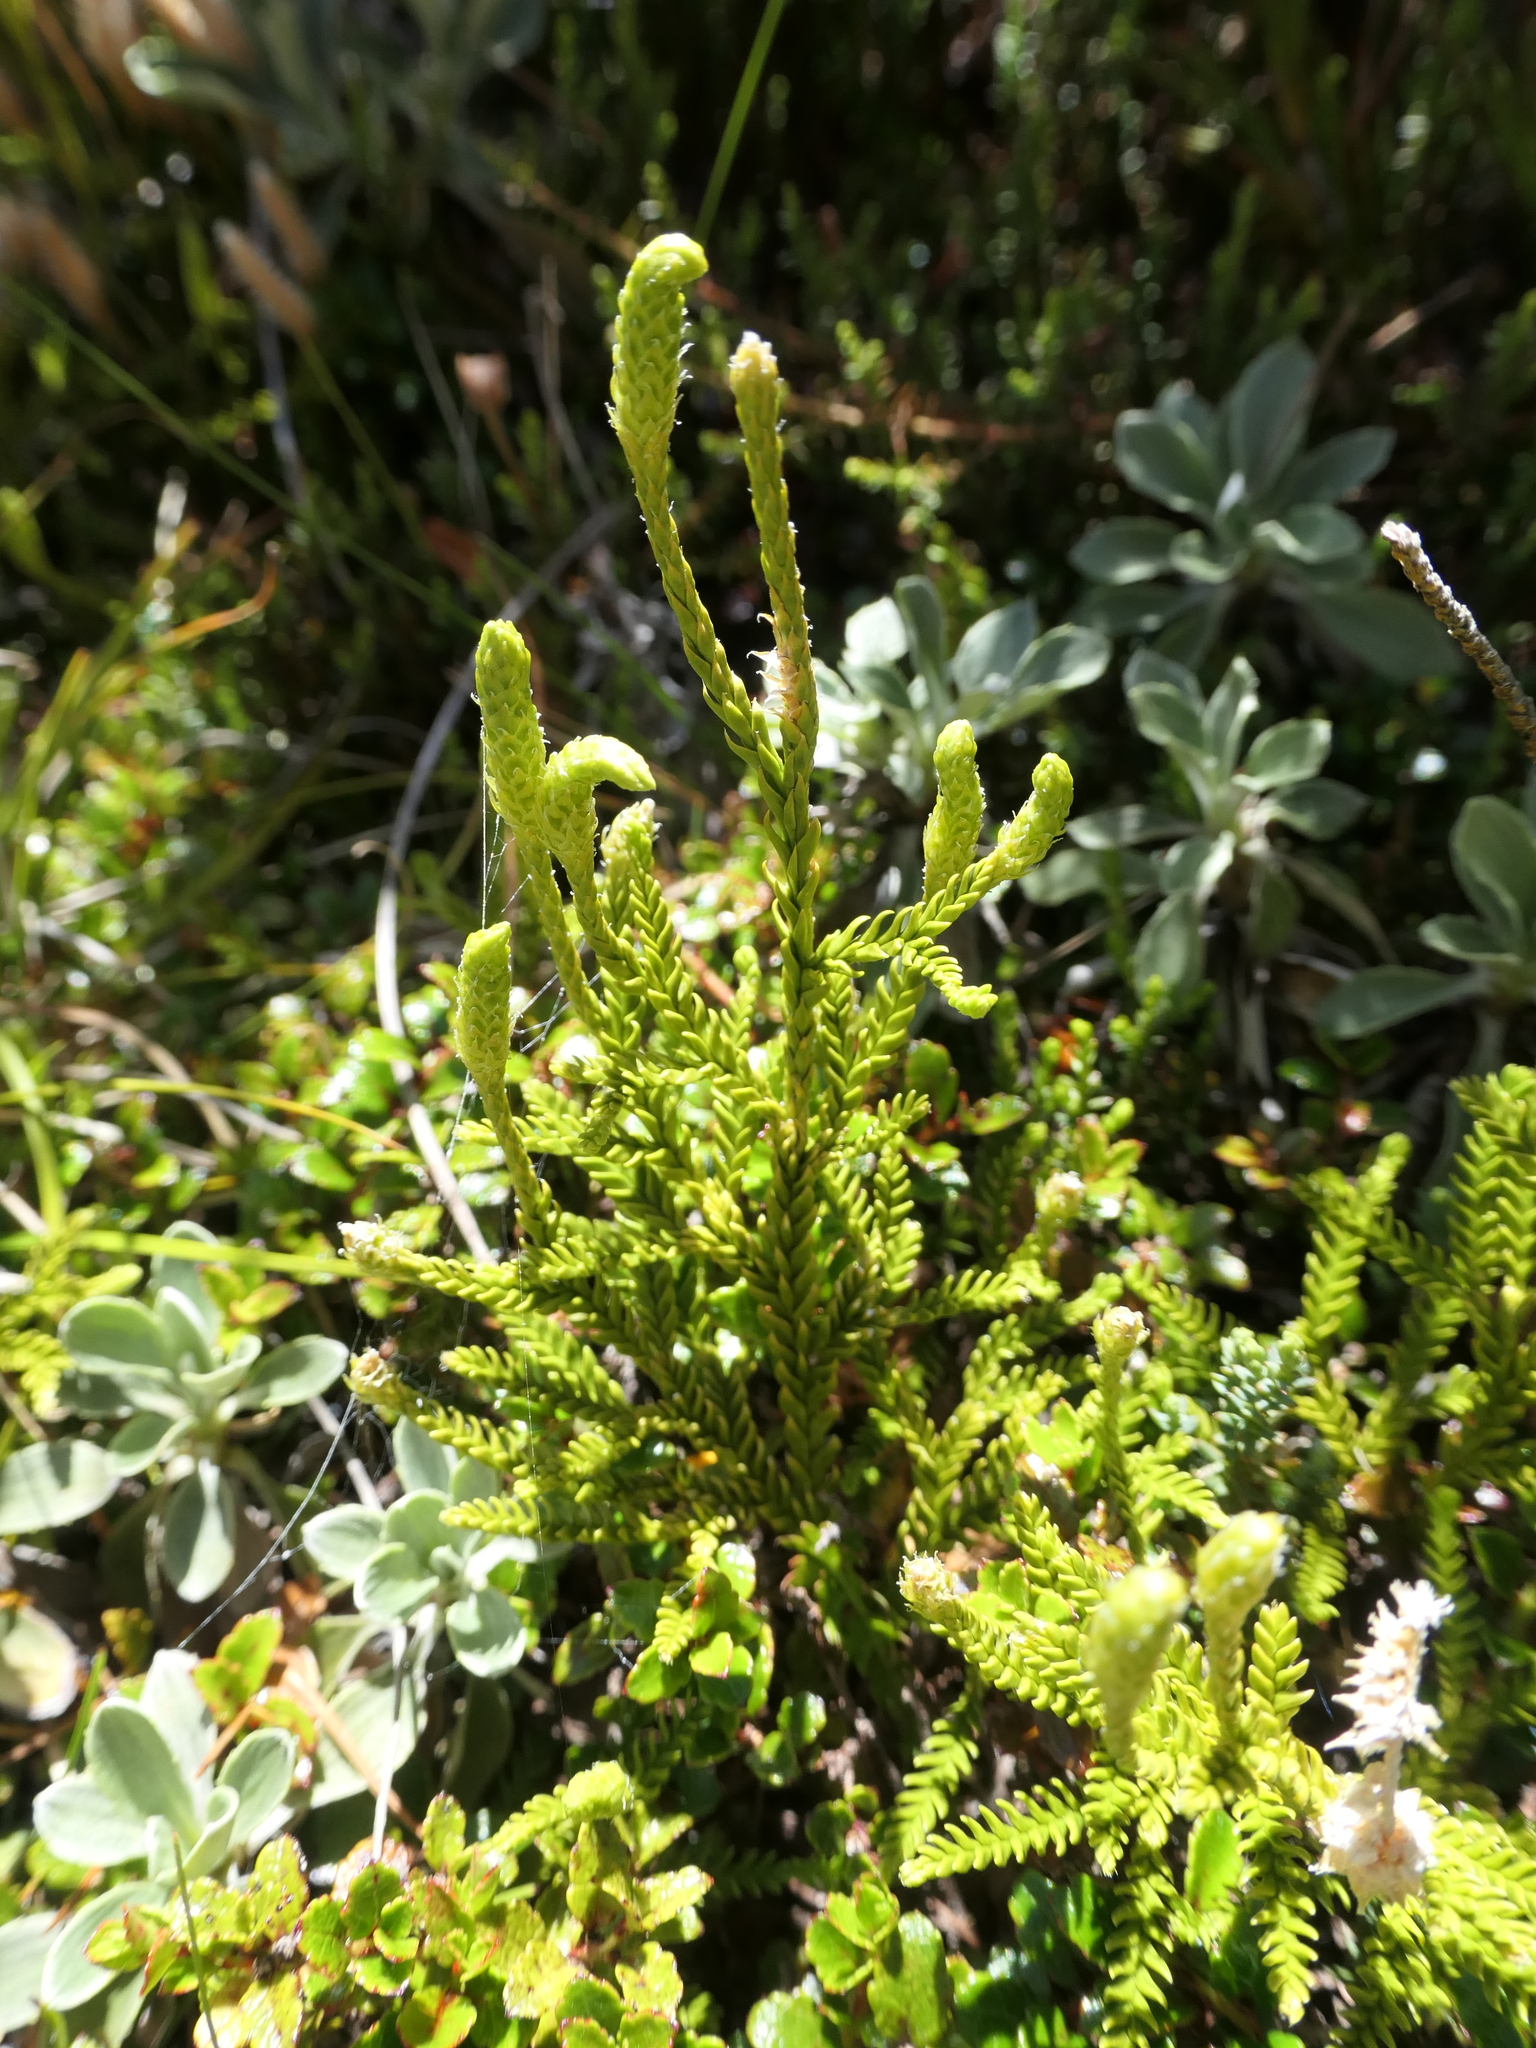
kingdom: Plantae
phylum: Tracheophyta
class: Lycopodiopsida
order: Lycopodiales
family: Lycopodiaceae
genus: Diphasium
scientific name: Diphasium scariosum
